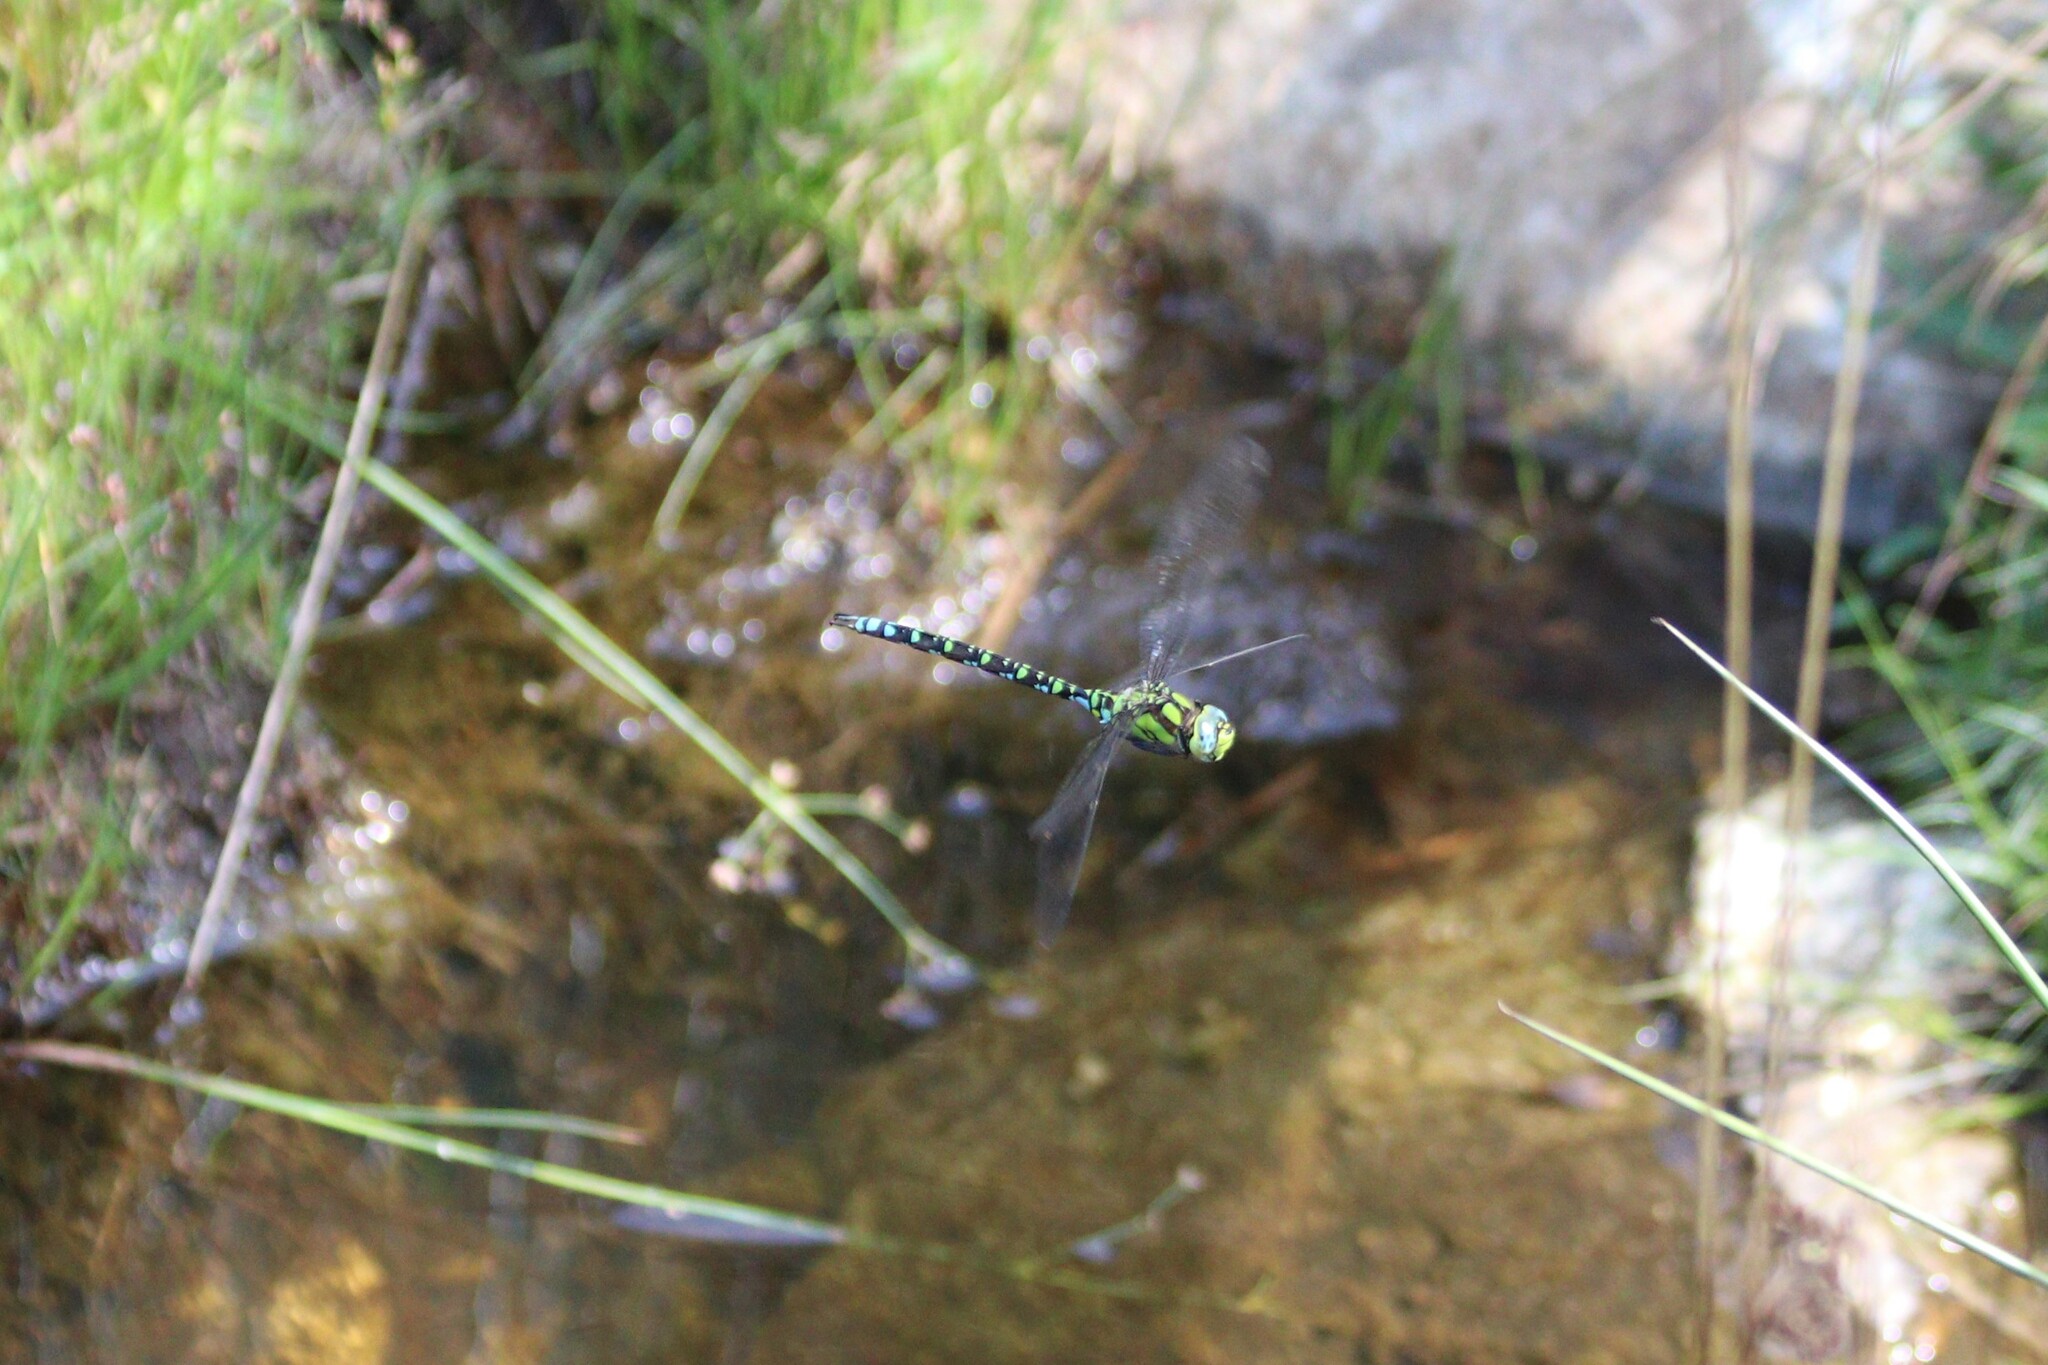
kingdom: Animalia
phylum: Arthropoda
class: Insecta
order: Odonata
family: Aeshnidae
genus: Aeshna
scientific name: Aeshna cyanea
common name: Southern hawker
